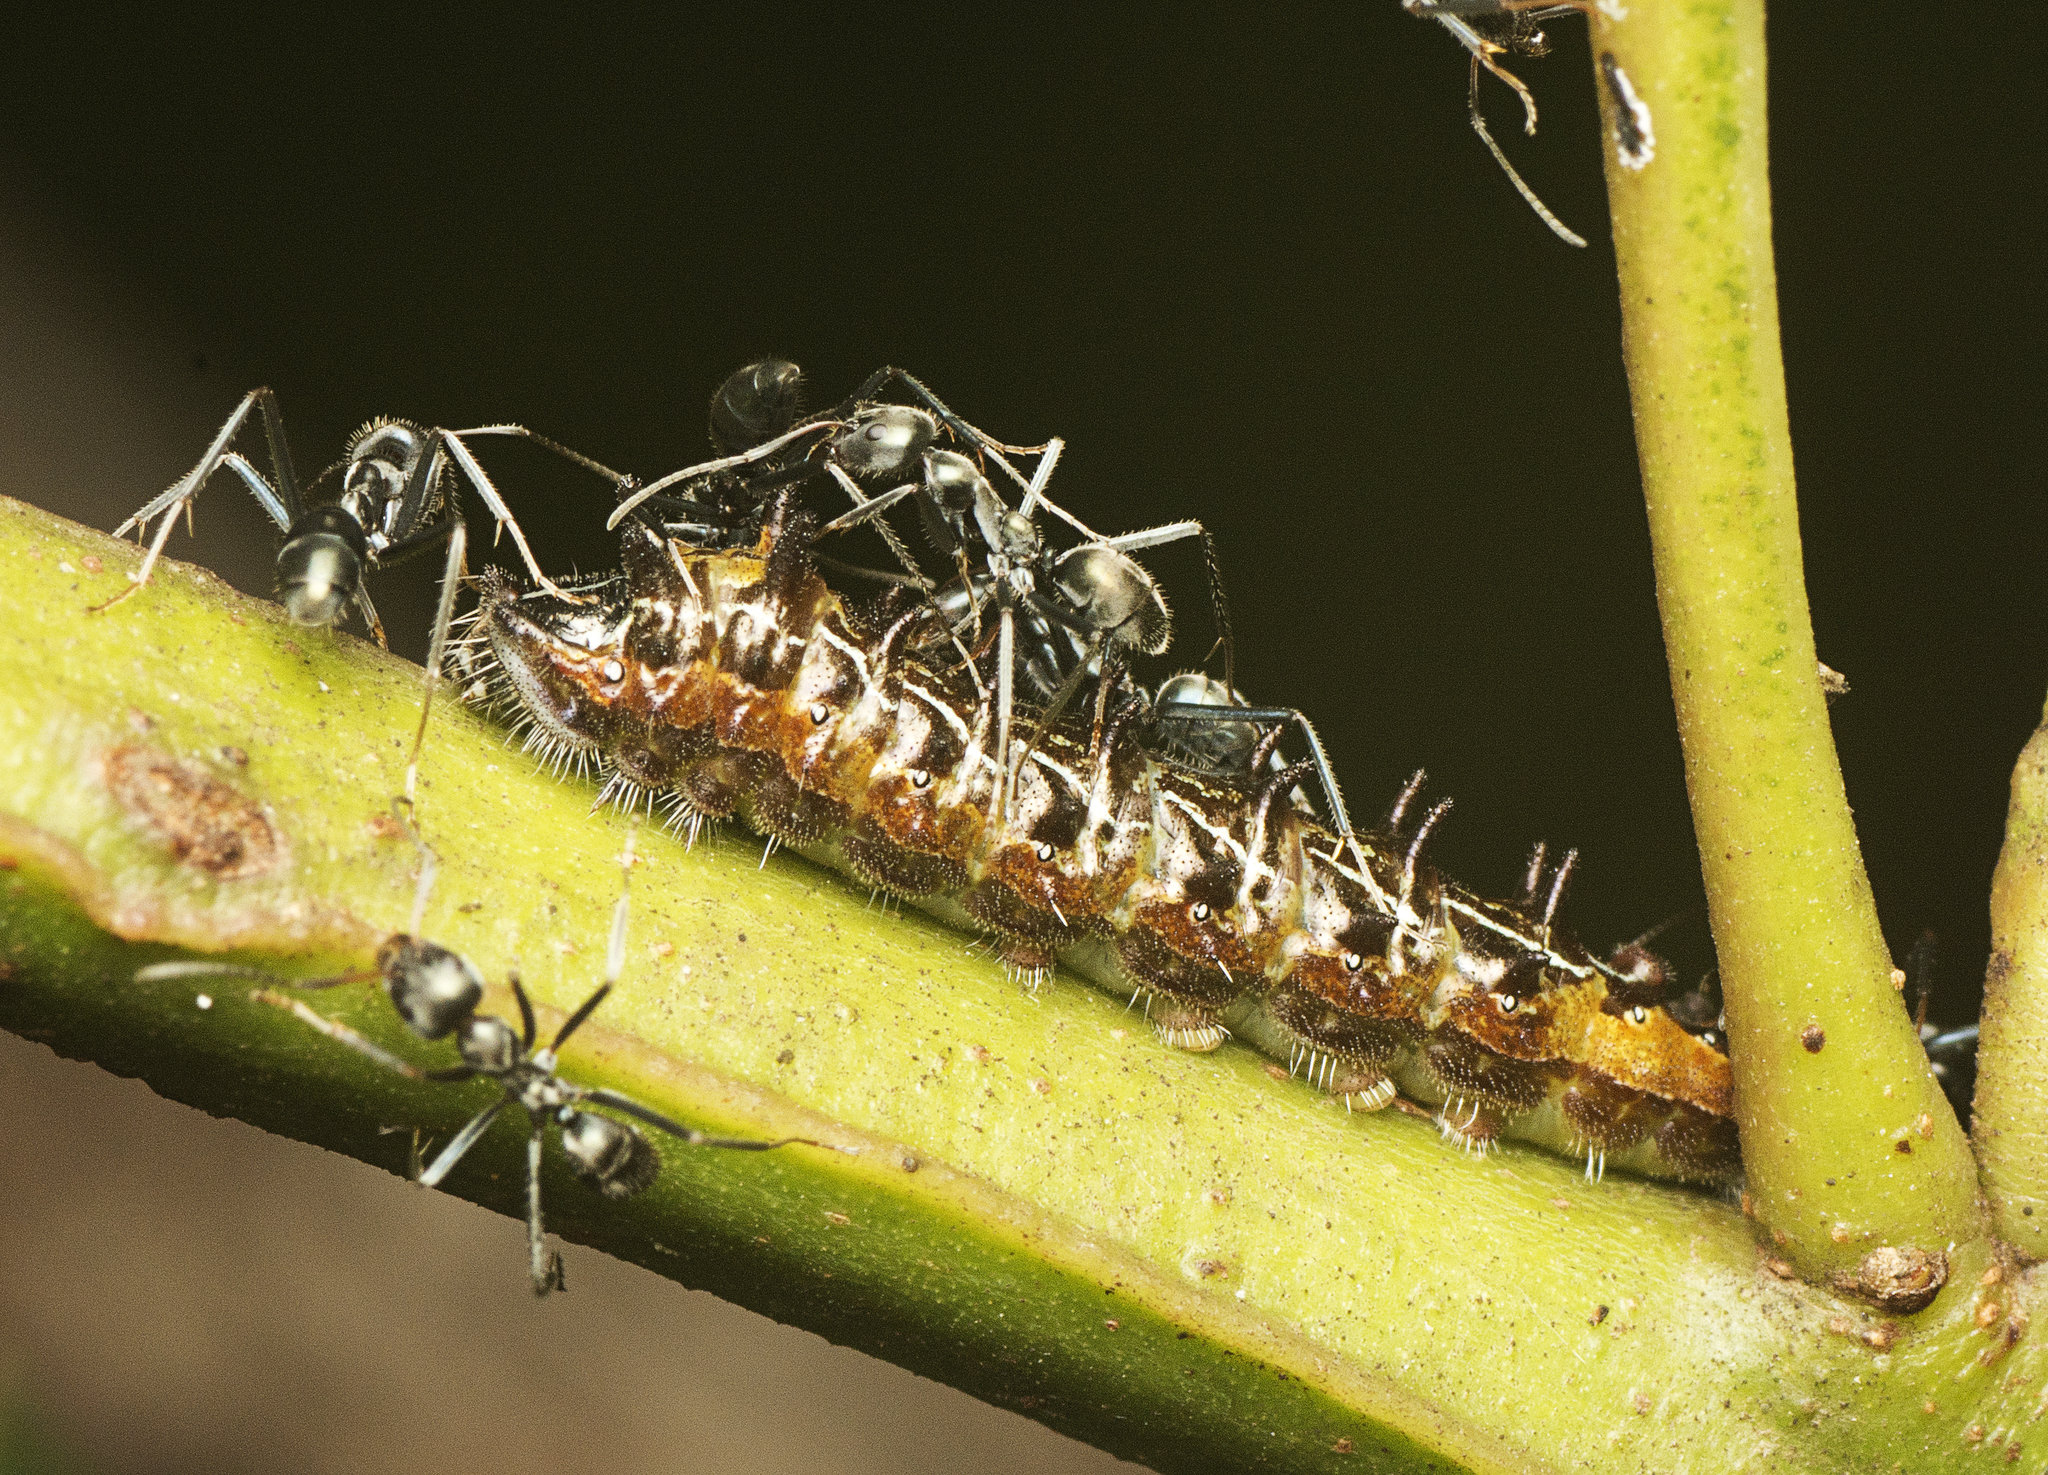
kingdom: Animalia
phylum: Arthropoda
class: Insecta
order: Lepidoptera
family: Lycaenidae
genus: Jalmenus
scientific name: Jalmenus evagoras
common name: Common imperial blue
